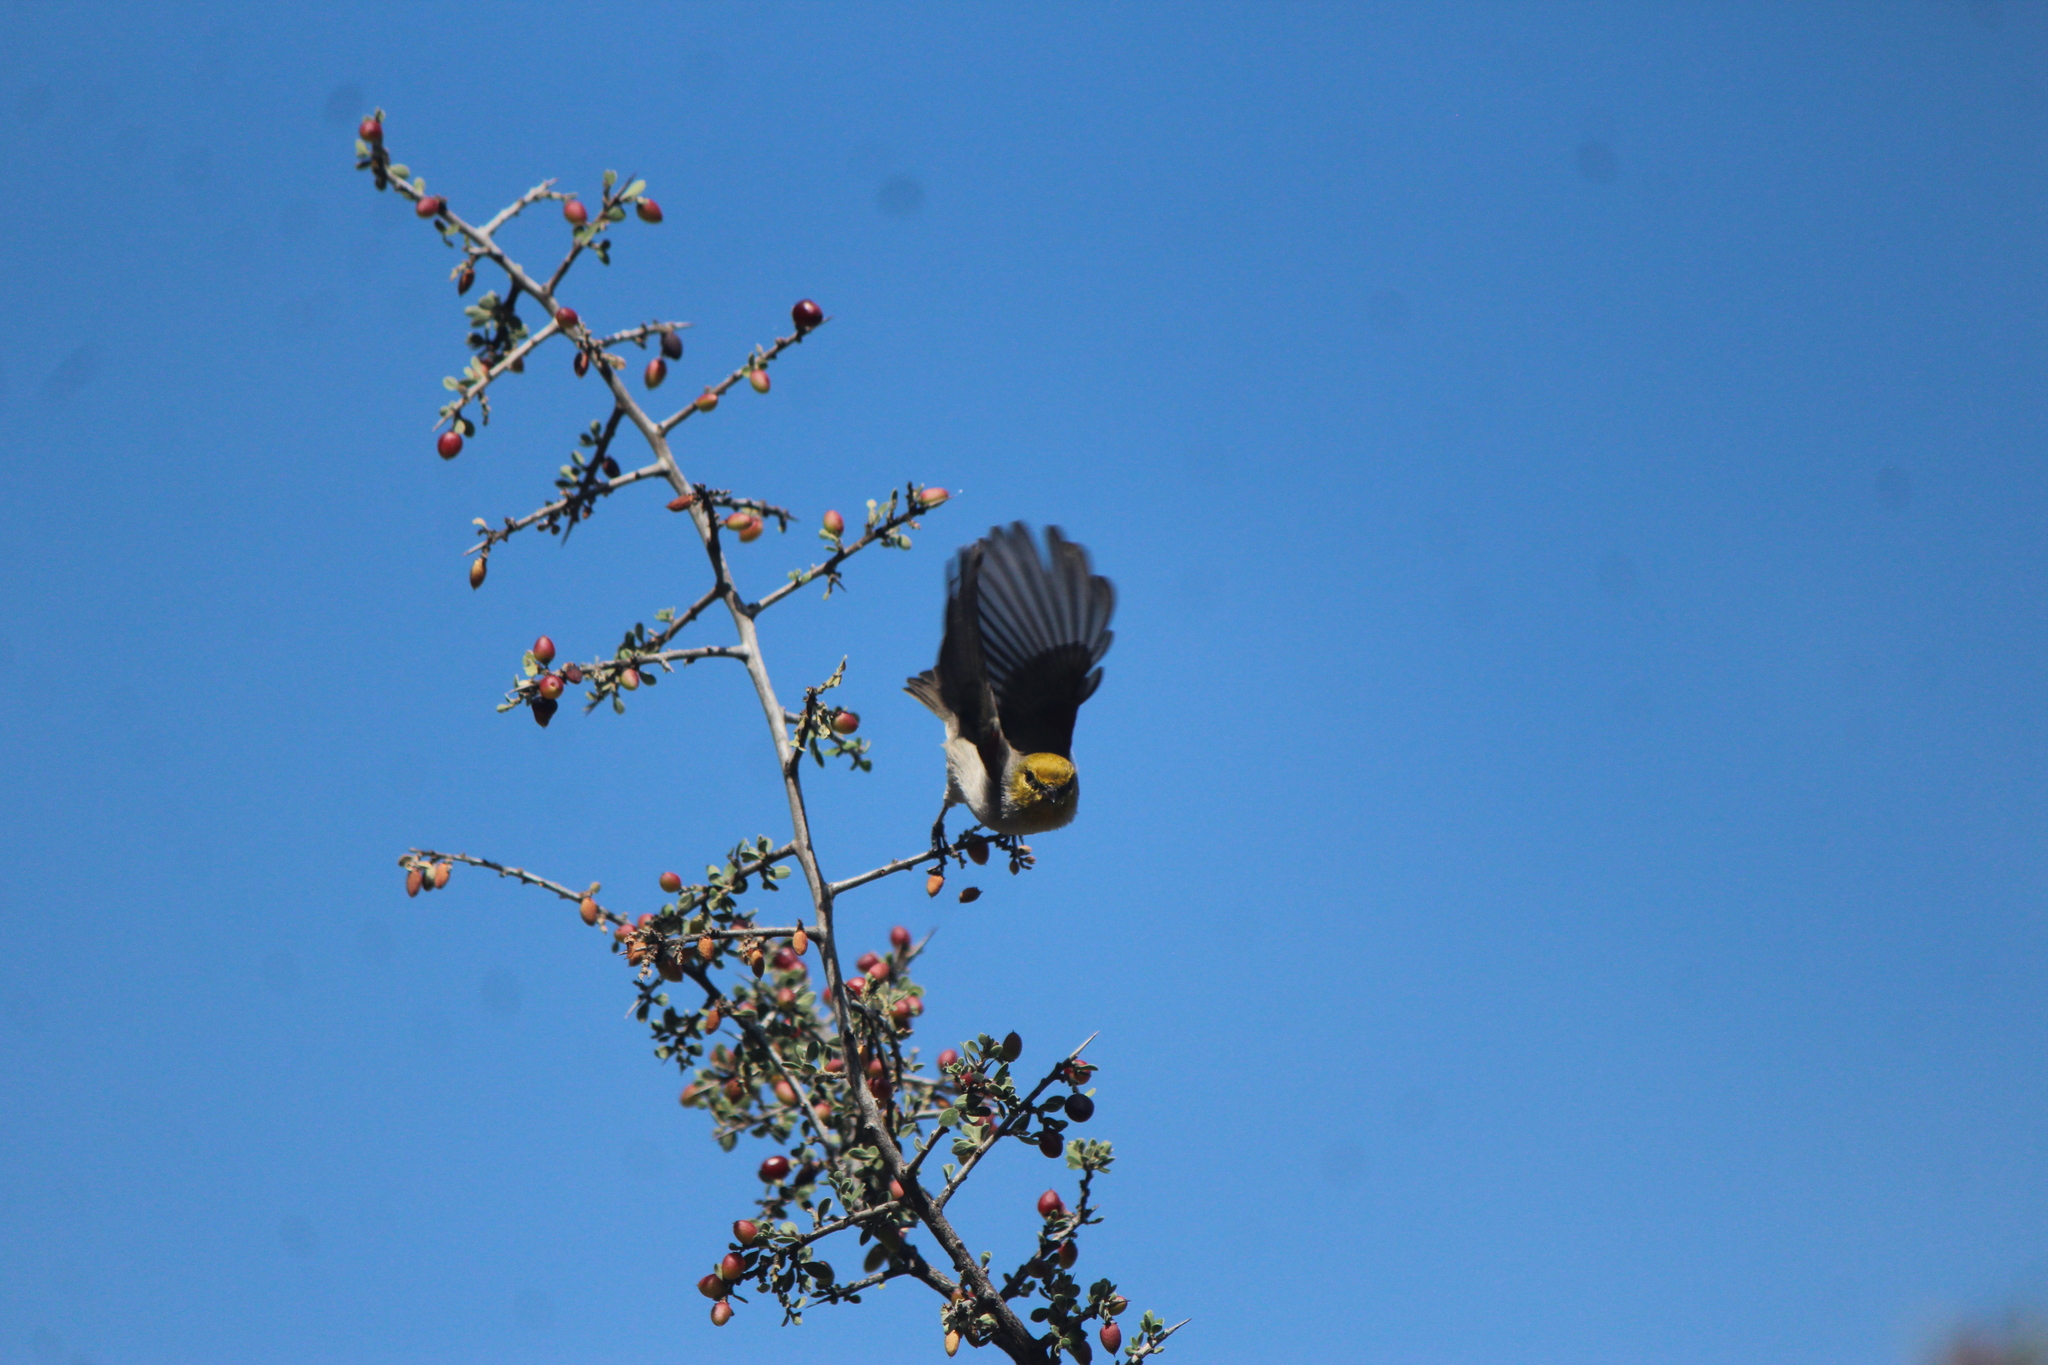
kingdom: Animalia
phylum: Chordata
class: Aves
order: Passeriformes
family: Remizidae
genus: Auriparus
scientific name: Auriparus flaviceps
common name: Verdin
